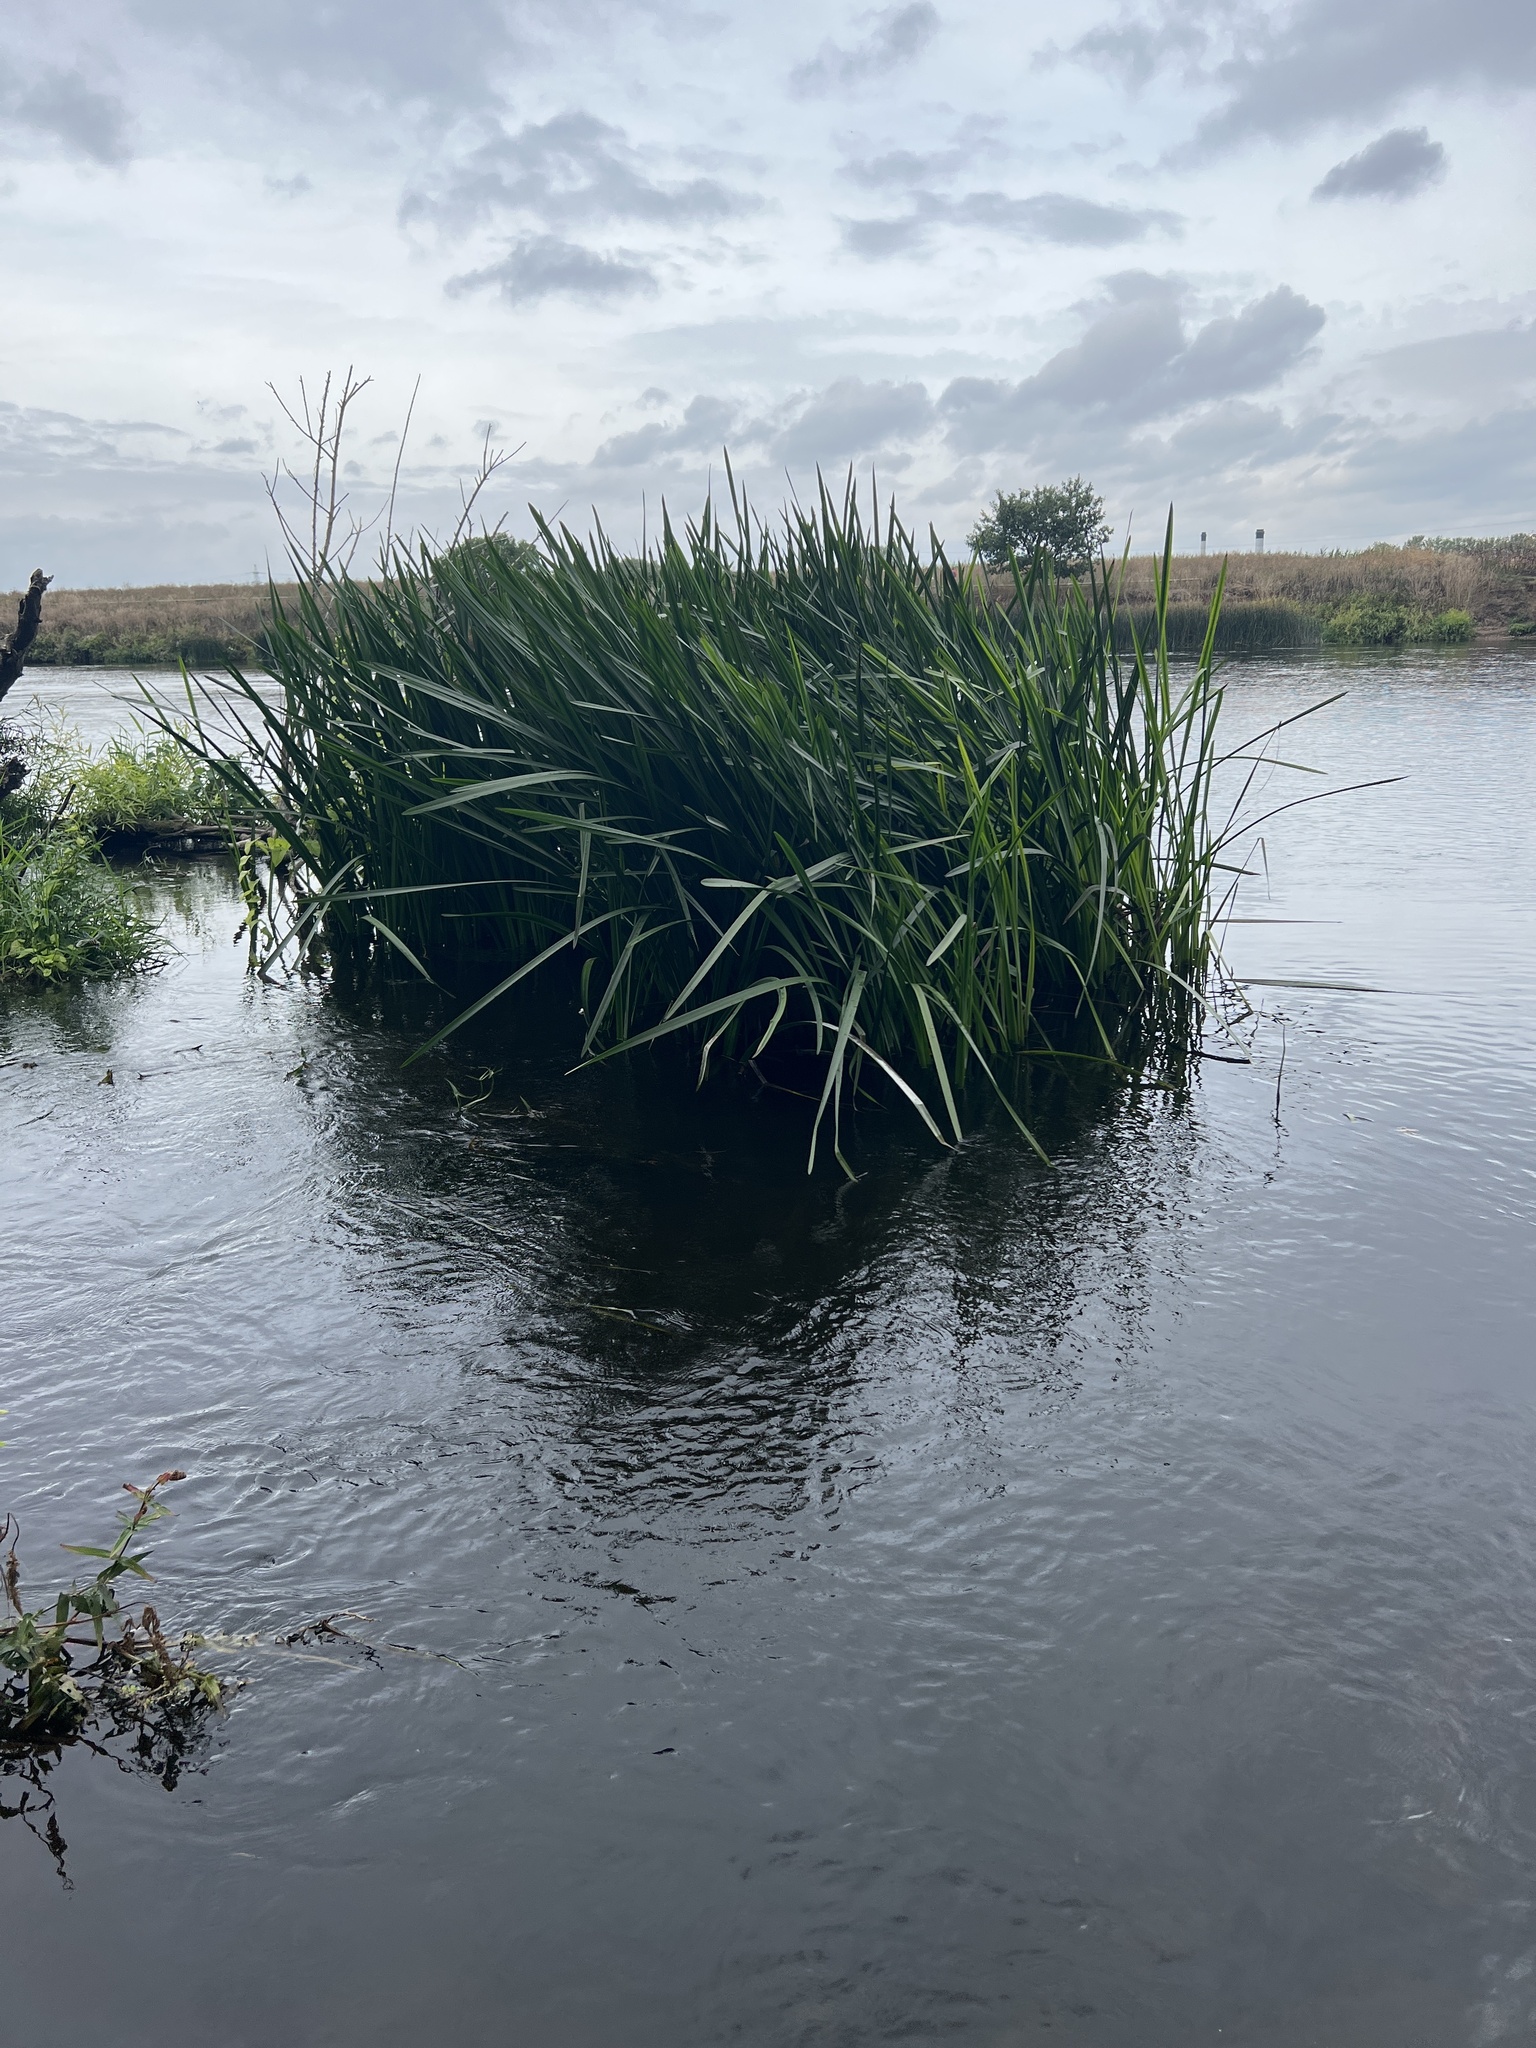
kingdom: Plantae
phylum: Tracheophyta
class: Liliopsida
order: Poales
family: Typhaceae
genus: Sparganium
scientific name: Sparganium erectum
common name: Branched bur-reed
